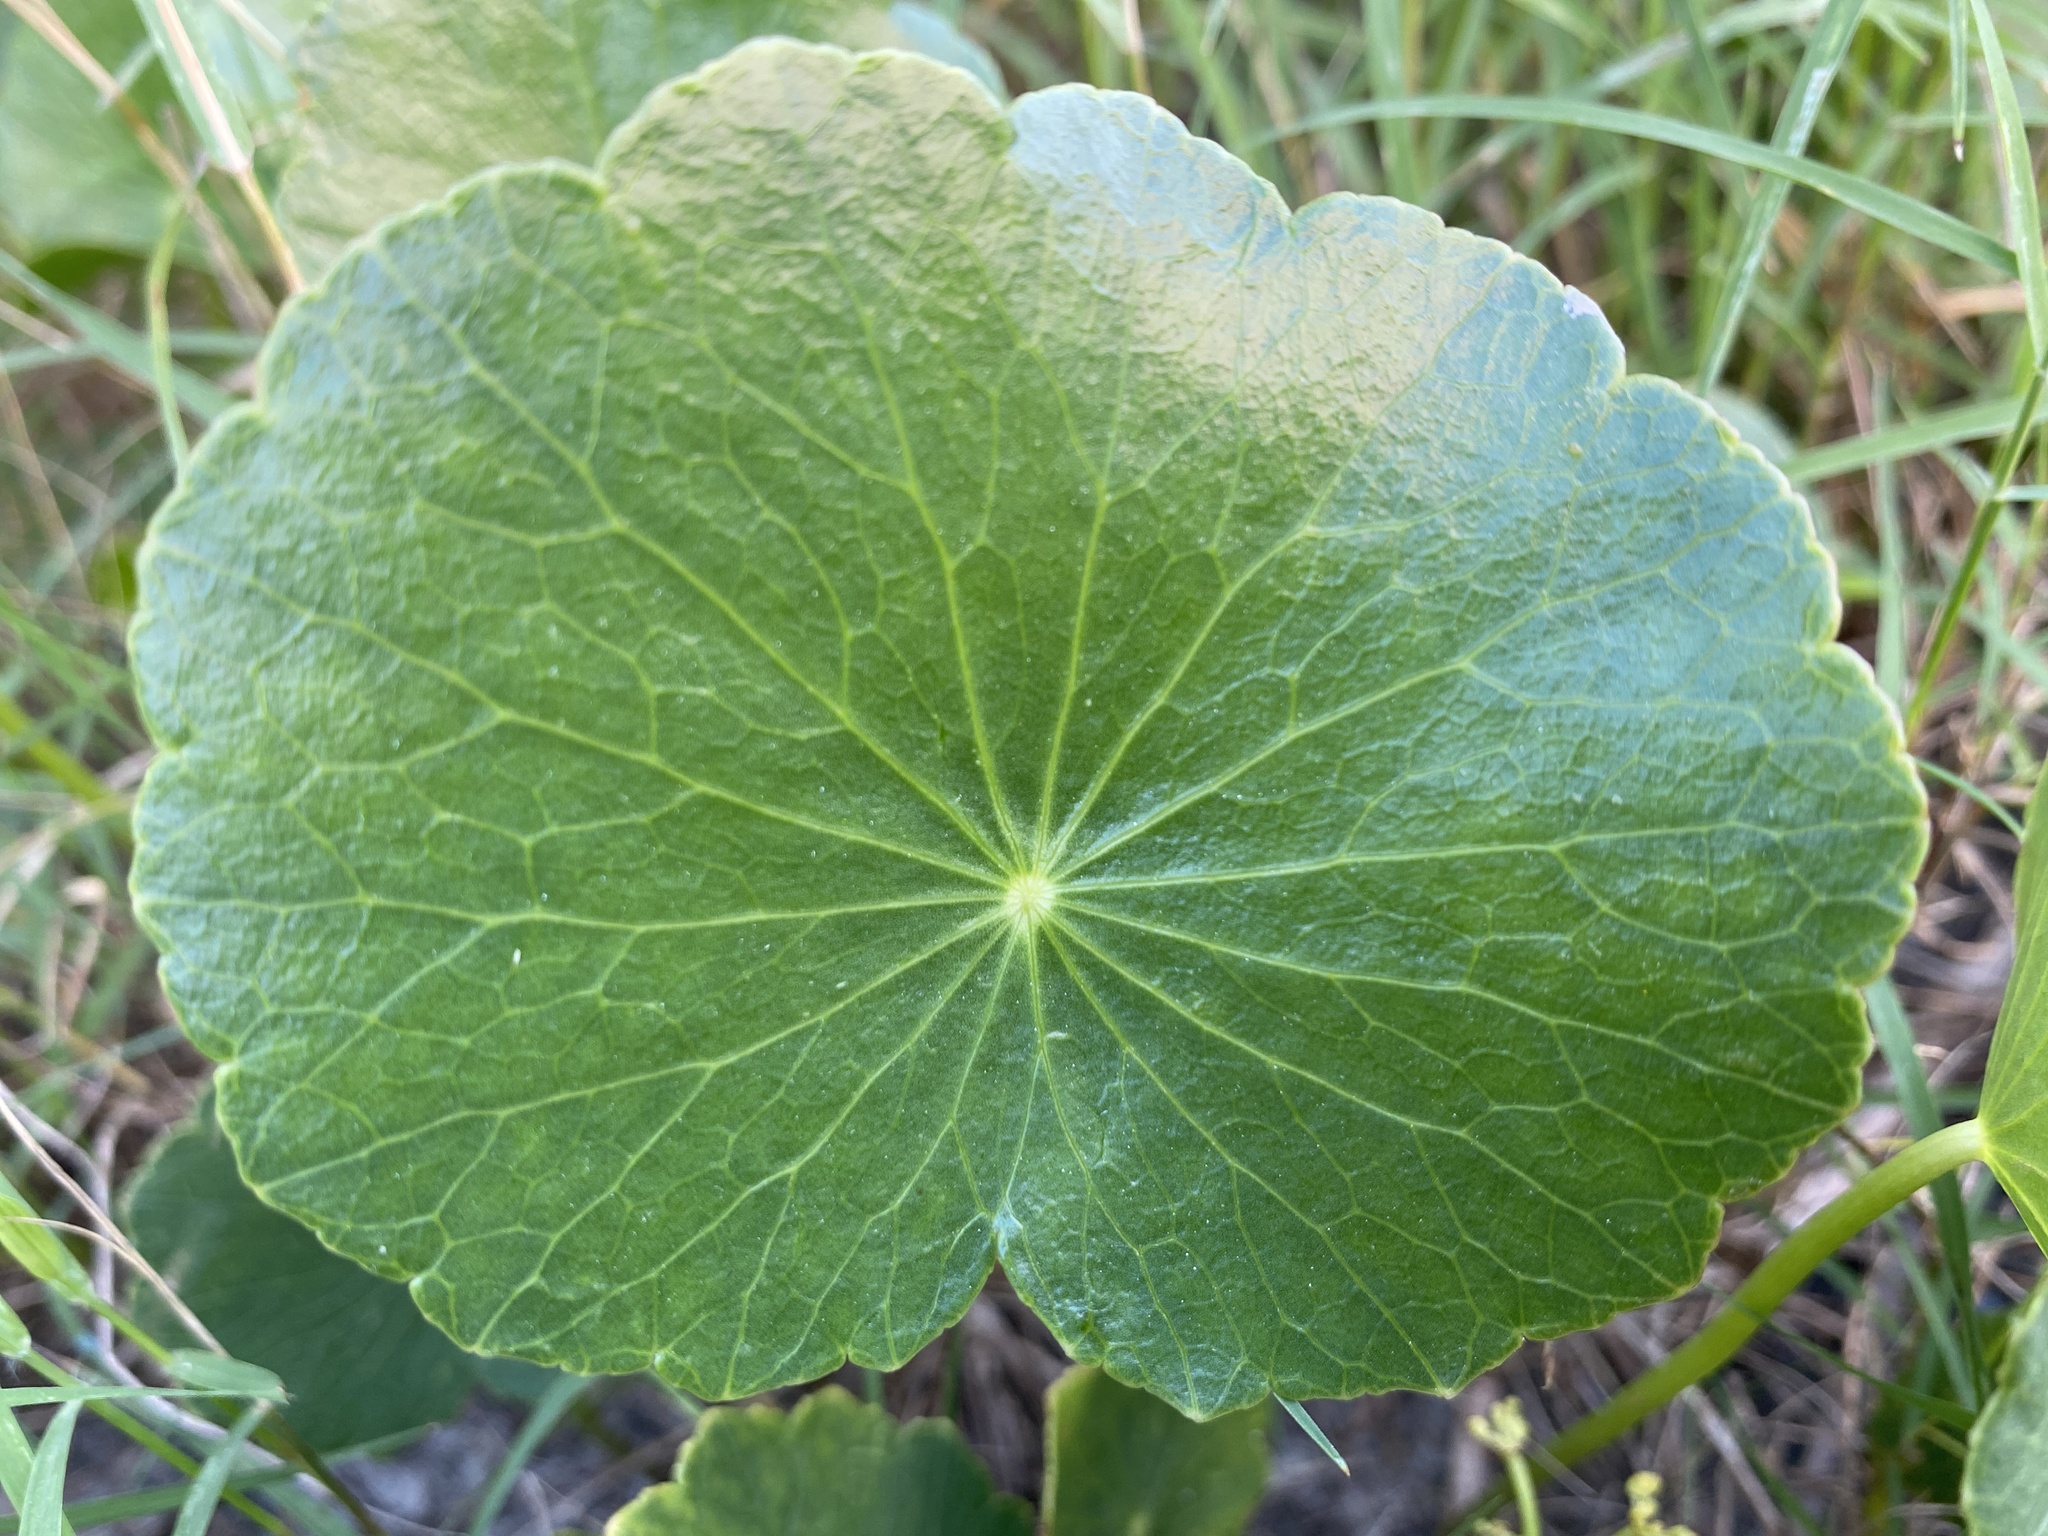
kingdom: Plantae
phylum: Tracheophyta
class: Magnoliopsida
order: Apiales
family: Araliaceae
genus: Hydrocotyle
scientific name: Hydrocotyle bonariensis
